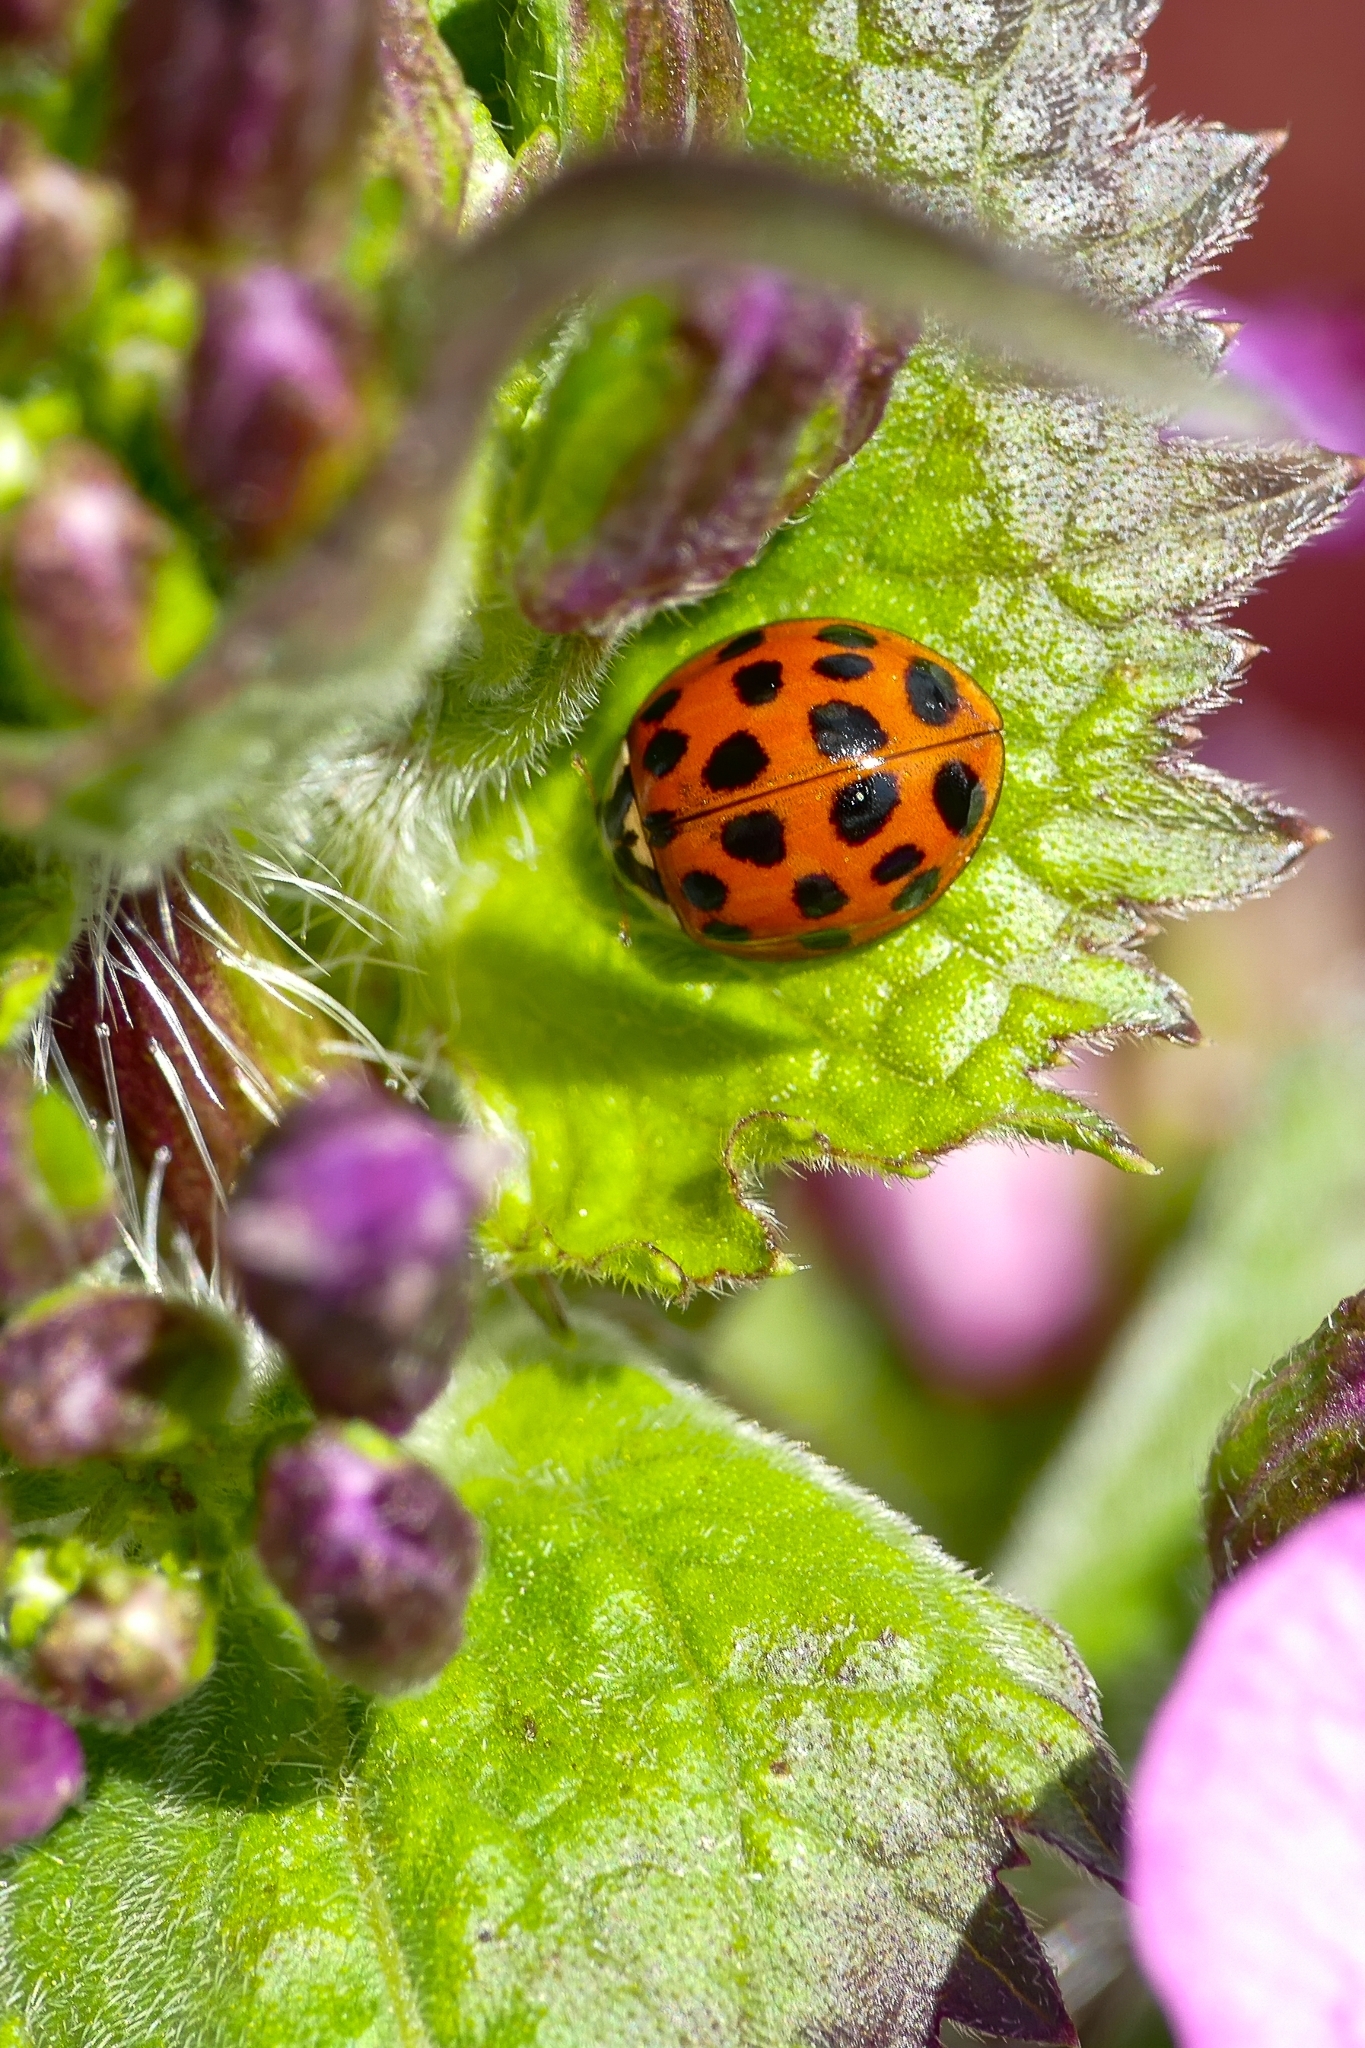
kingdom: Animalia
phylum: Arthropoda
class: Insecta
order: Coleoptera
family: Coccinellidae
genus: Harmonia
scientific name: Harmonia axyridis
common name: Harlequin ladybird
